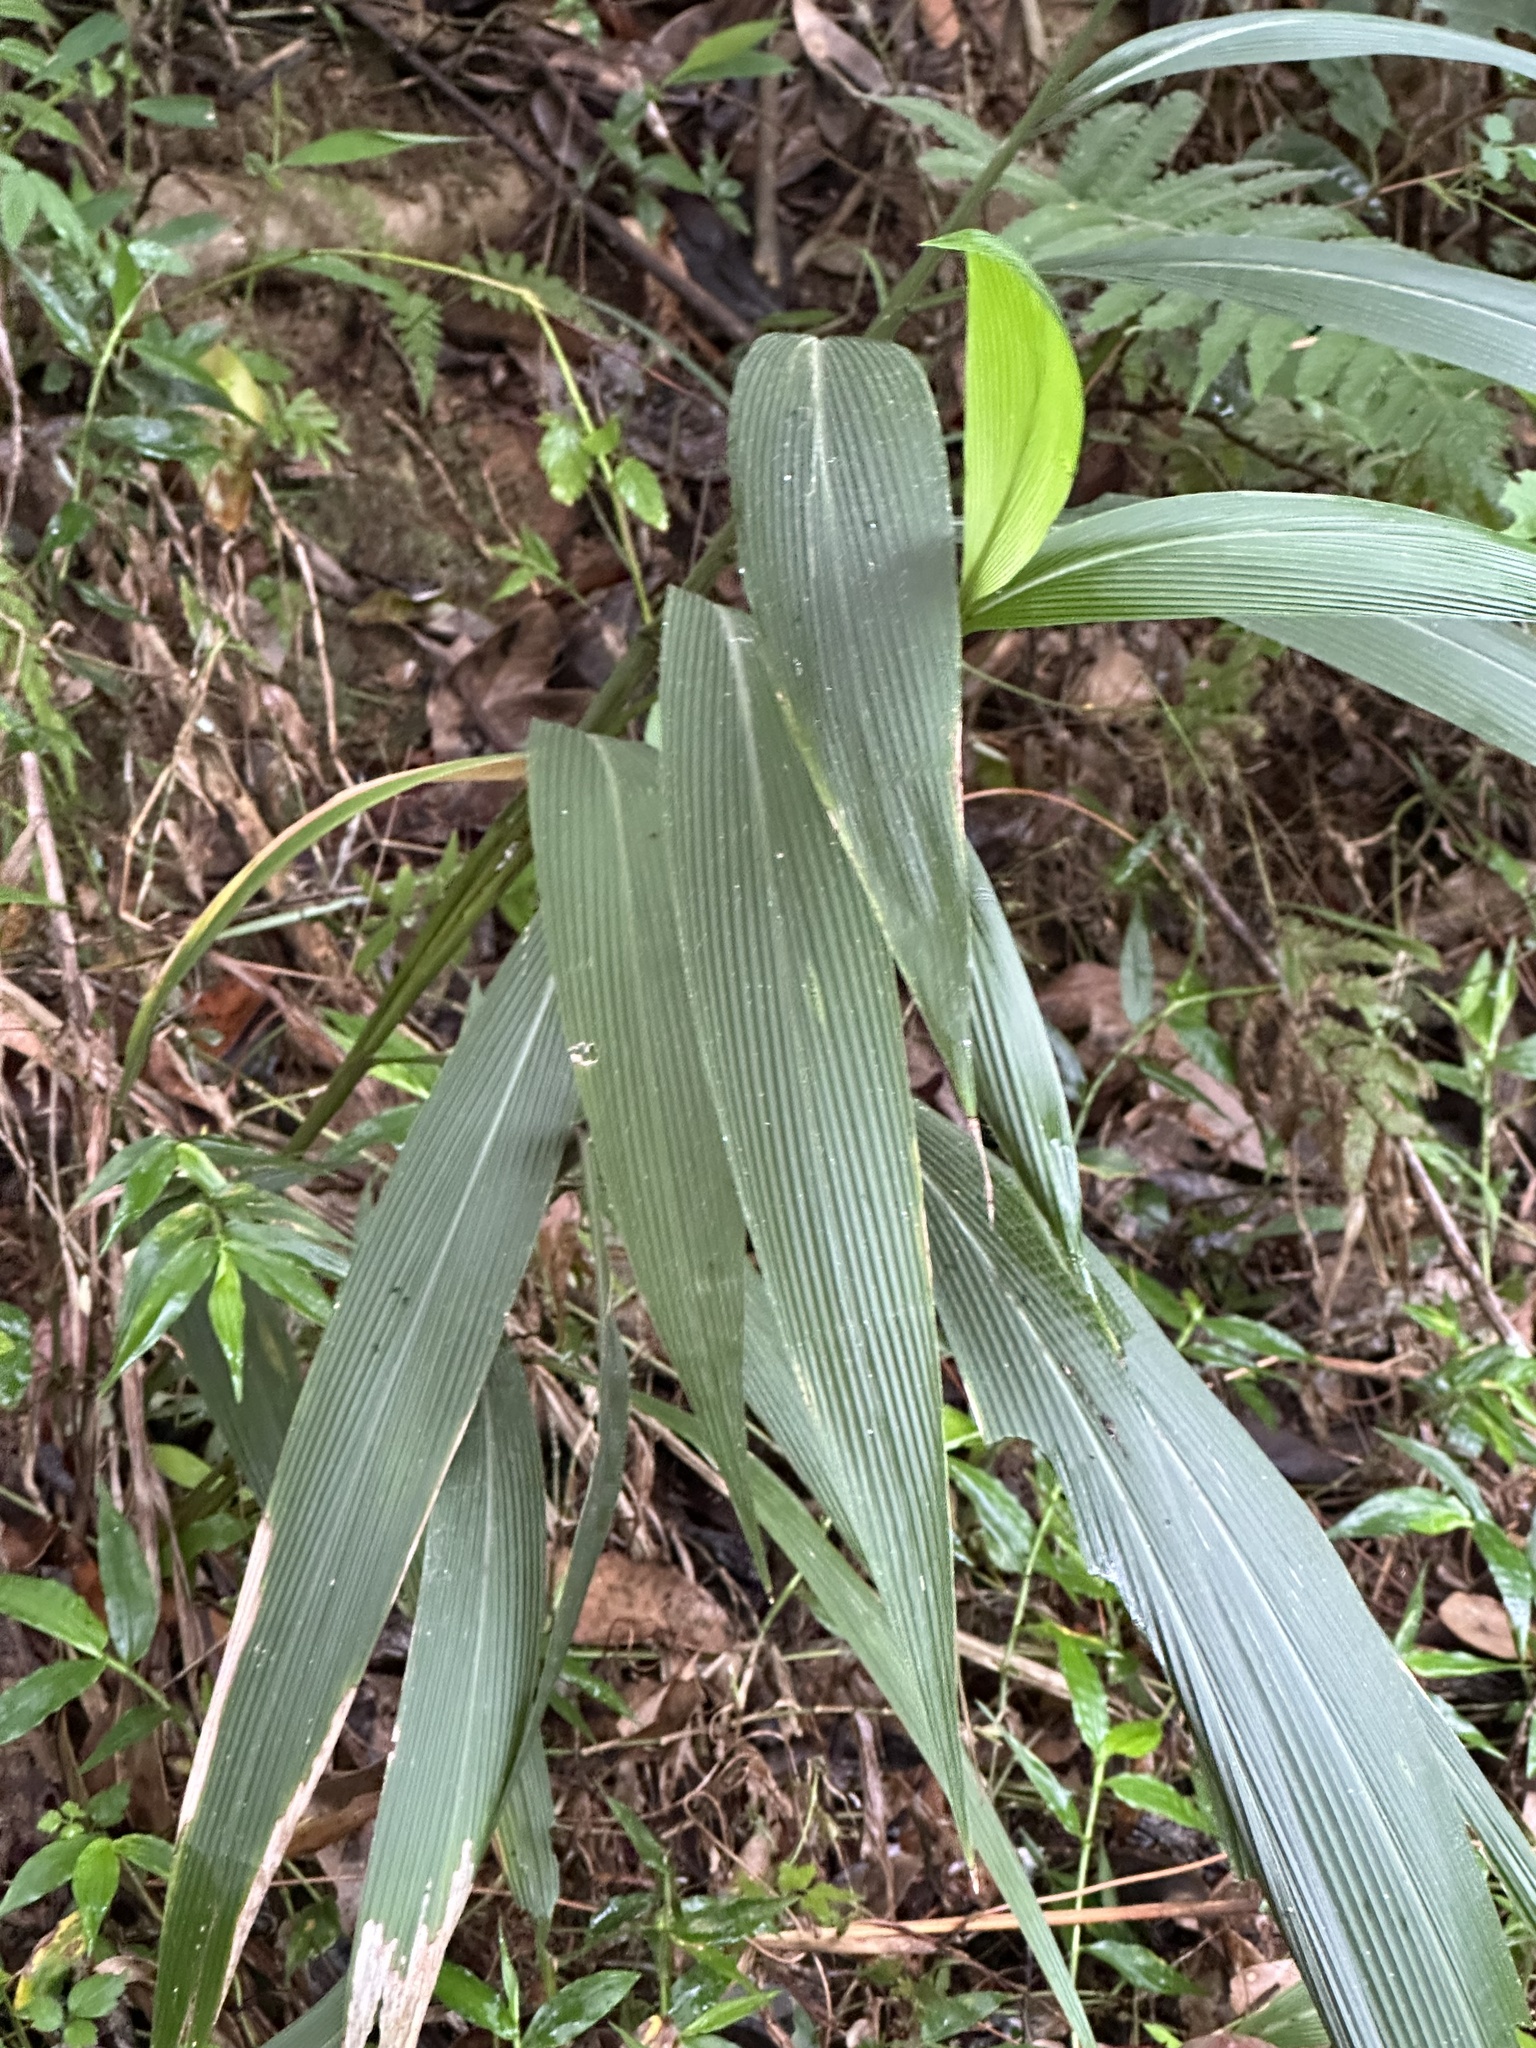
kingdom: Plantae
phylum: Tracheophyta
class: Liliopsida
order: Poales
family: Poaceae
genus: Setaria
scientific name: Setaria palmifolia
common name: Broadleaved bristlegrass
